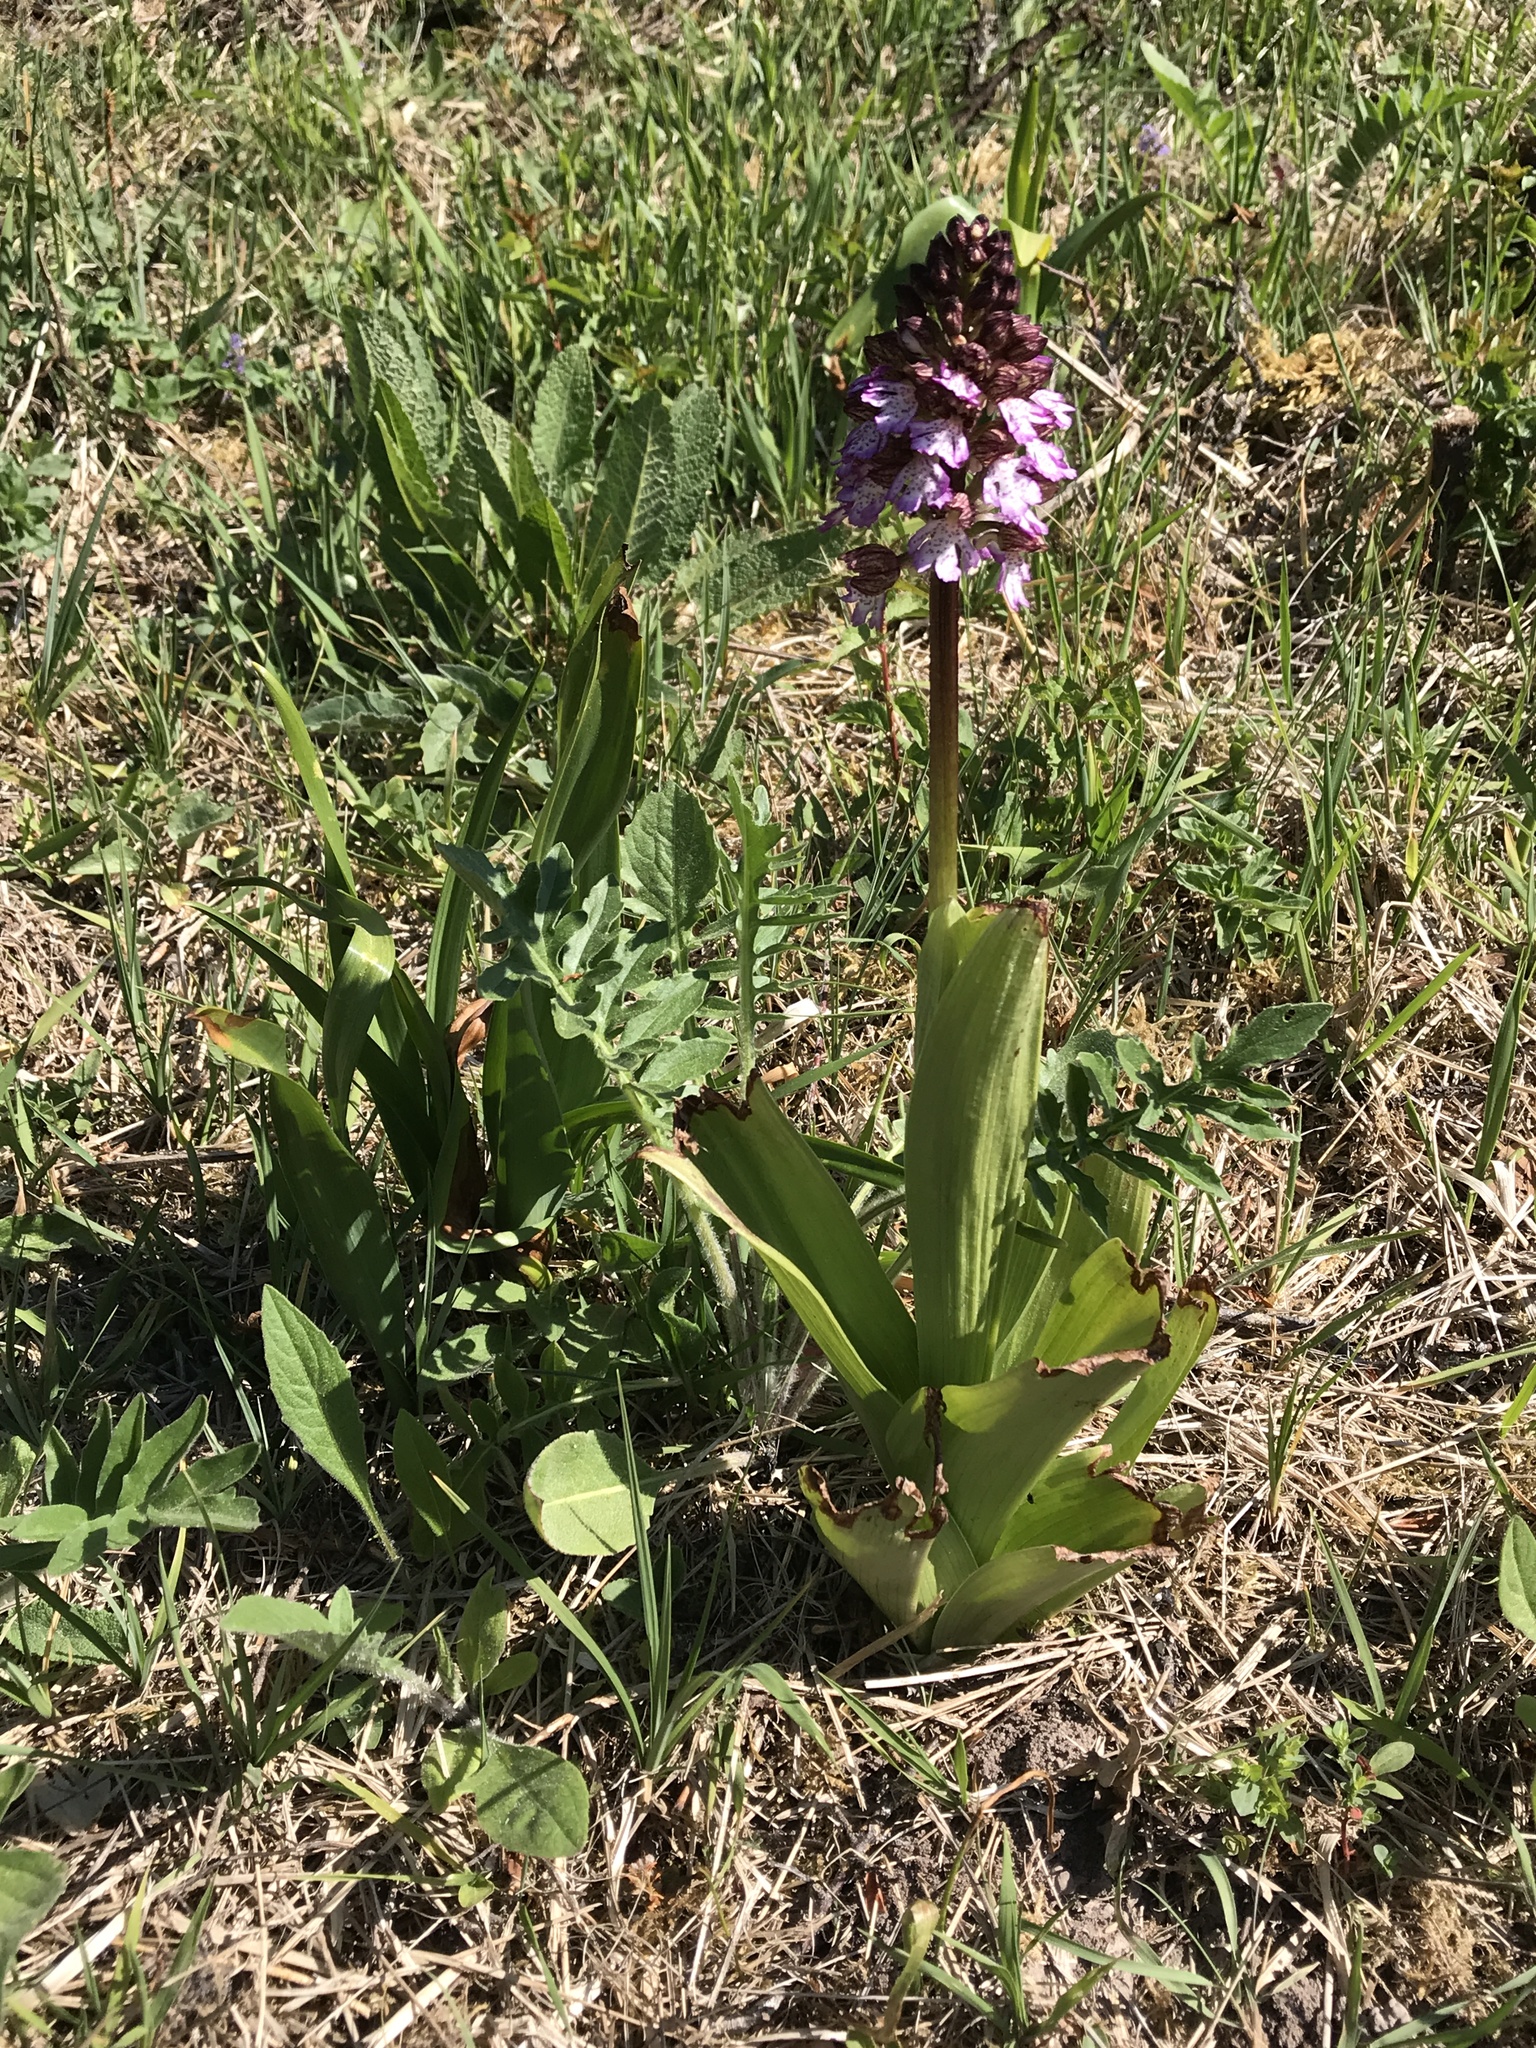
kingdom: Plantae
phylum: Tracheophyta
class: Liliopsida
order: Asparagales
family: Orchidaceae
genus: Orchis
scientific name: Orchis purpurea
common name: Lady orchid
